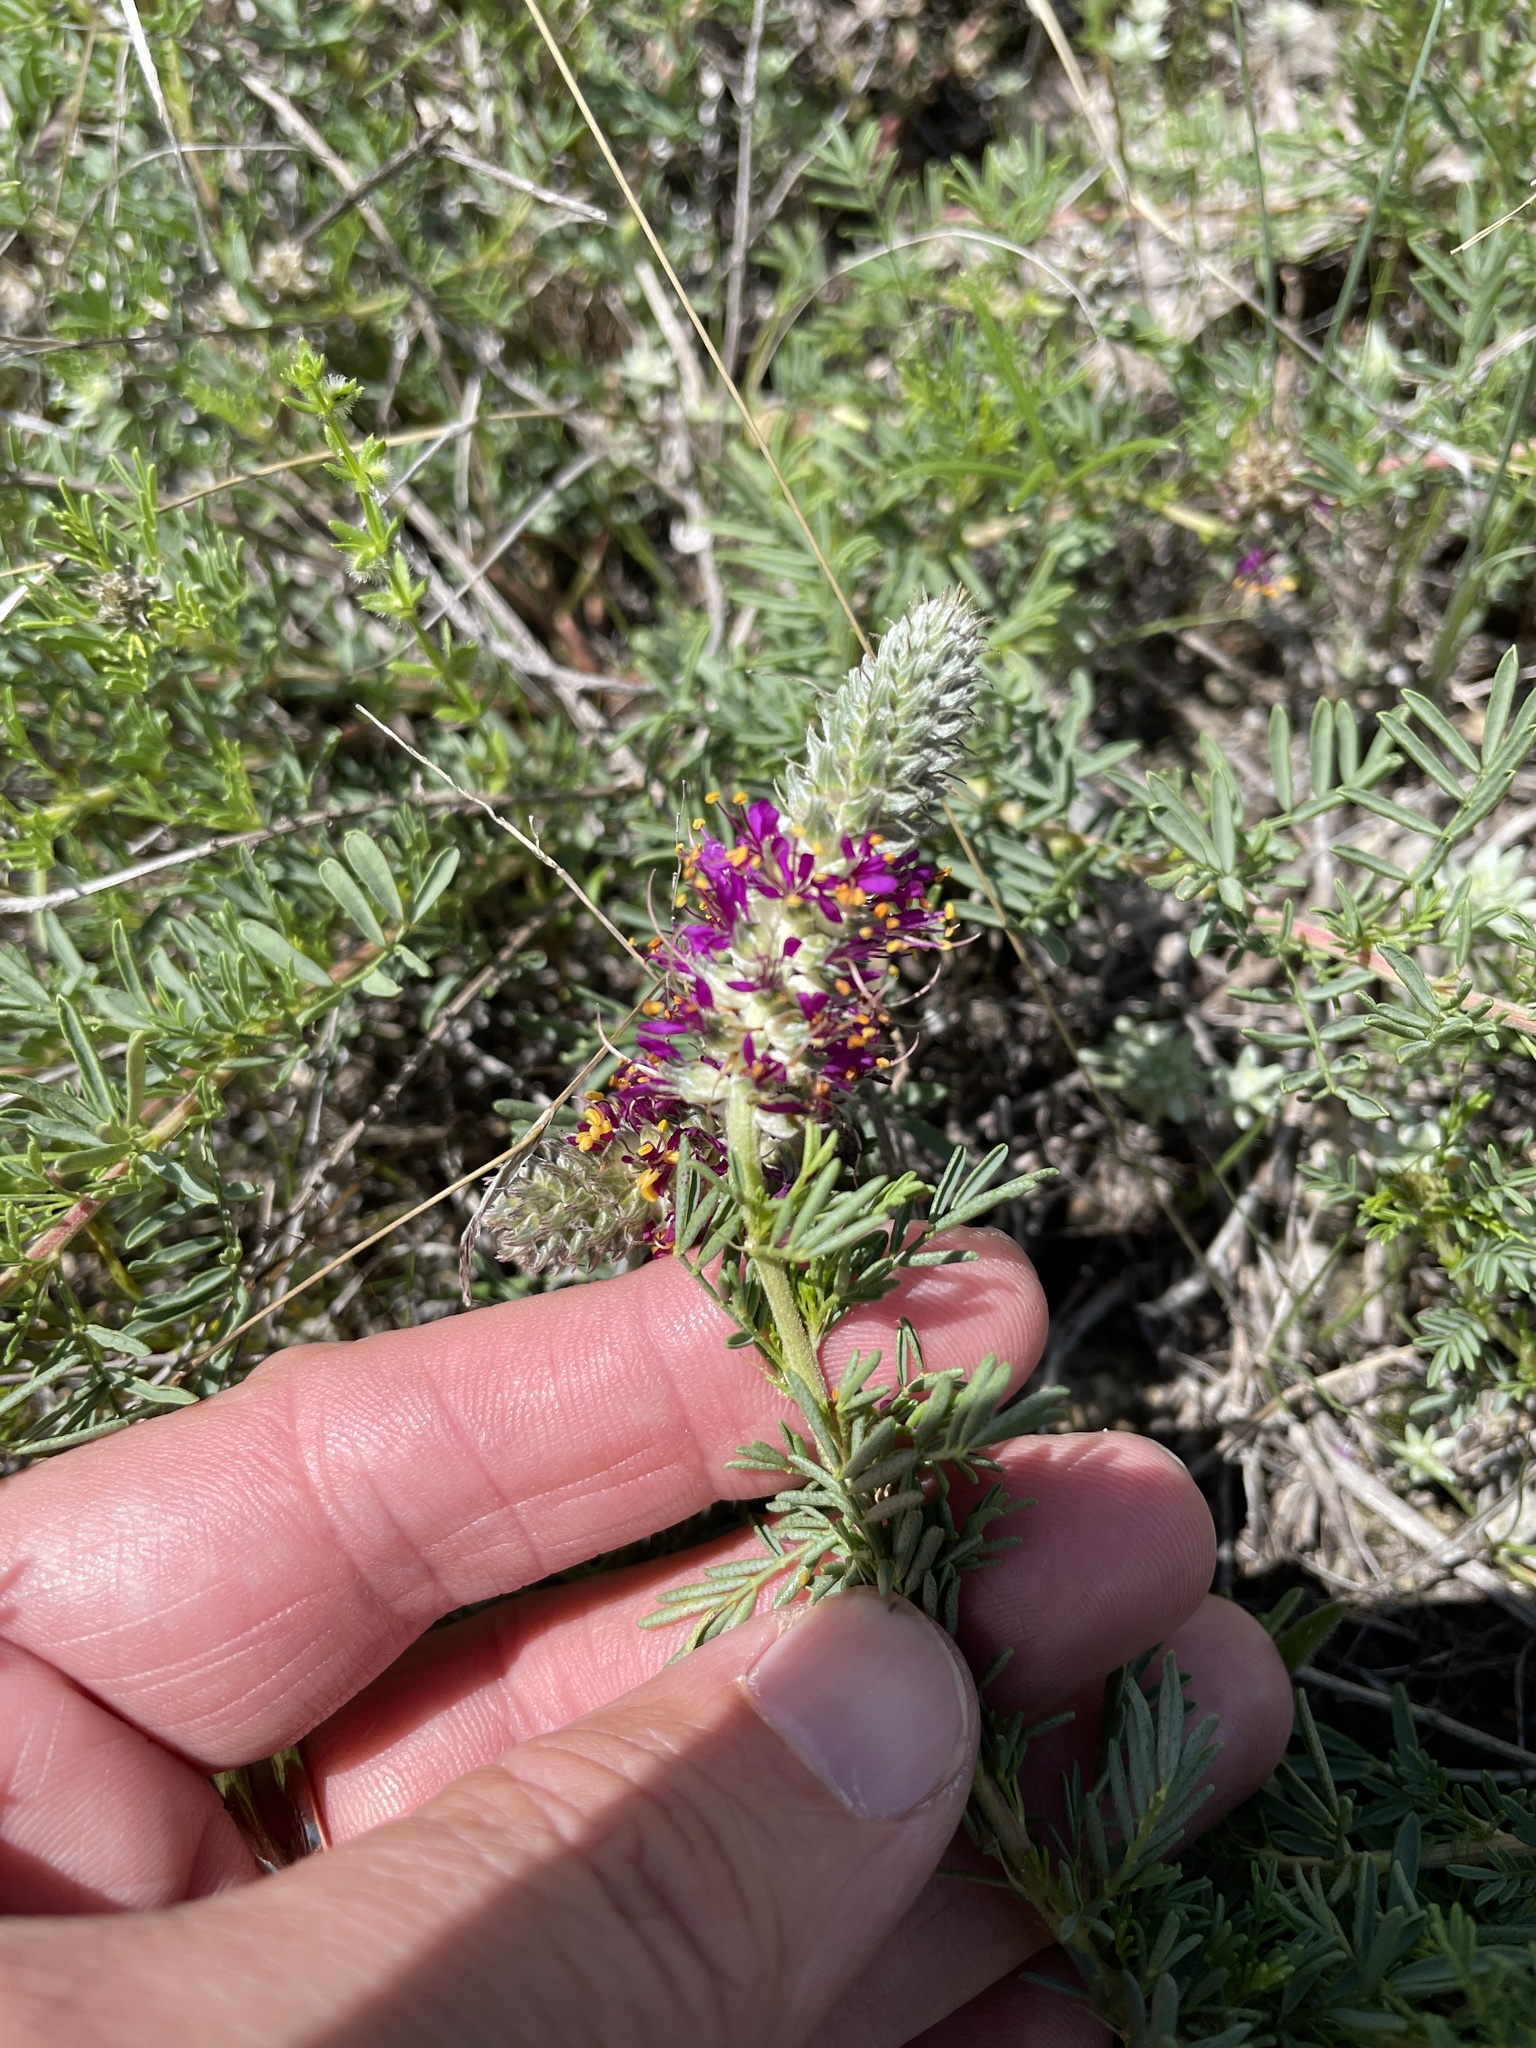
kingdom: Plantae
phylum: Tracheophyta
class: Magnoliopsida
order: Fabales
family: Fabaceae
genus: Dalea
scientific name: Dalea reverchonii
